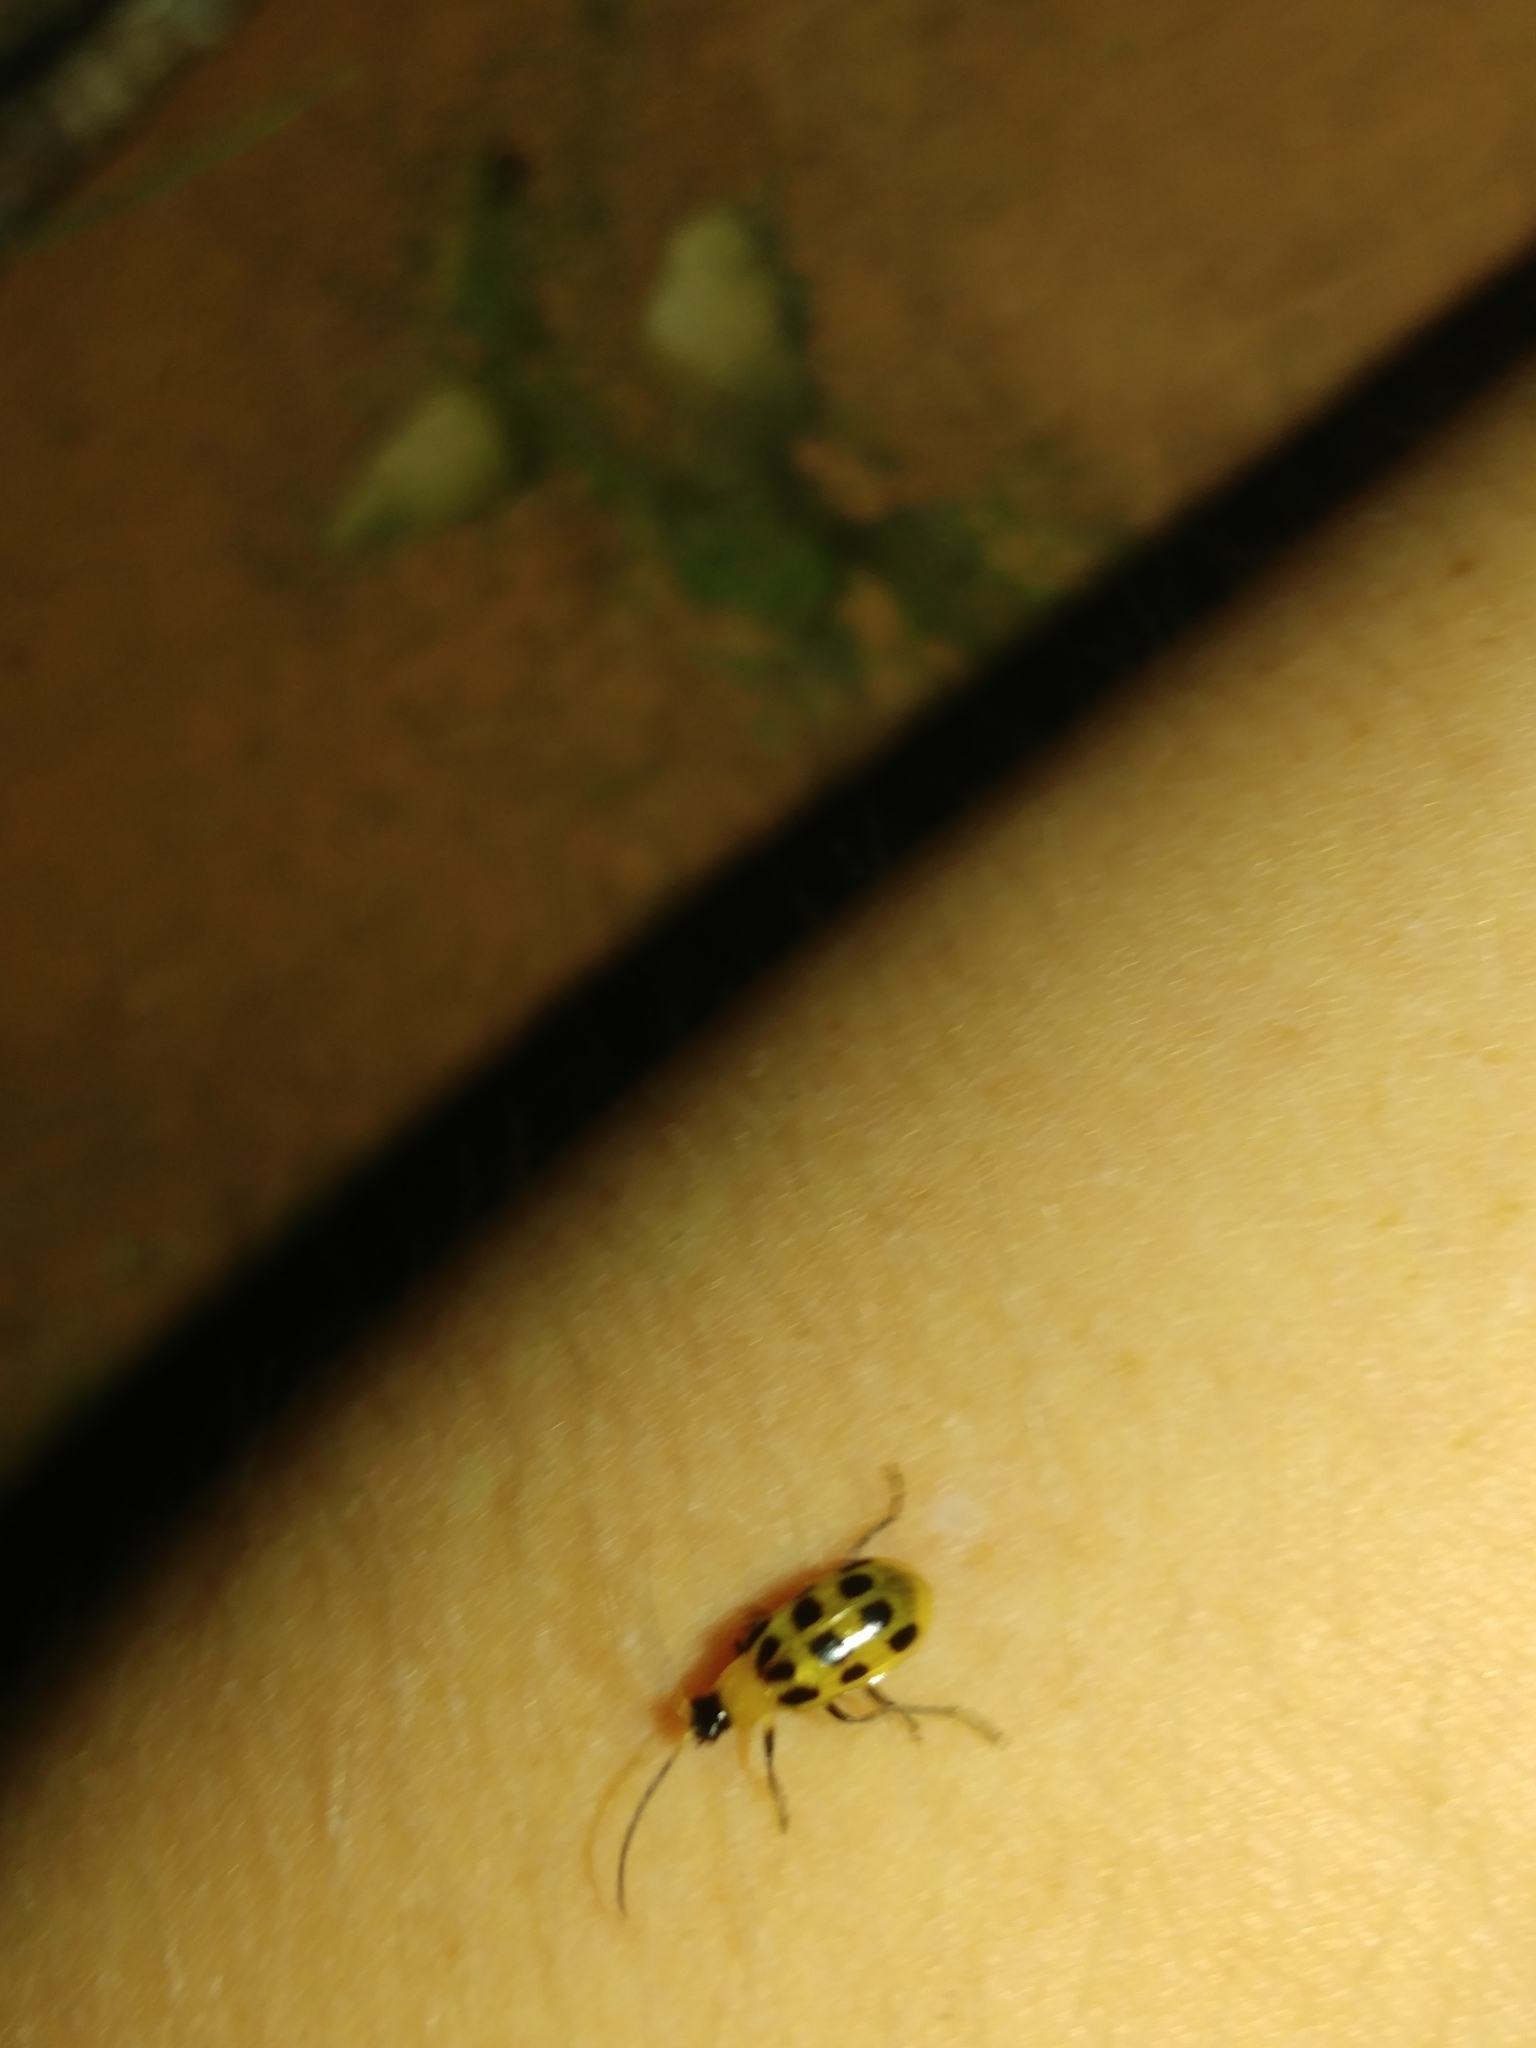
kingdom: Animalia
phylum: Arthropoda
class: Insecta
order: Coleoptera
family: Chrysomelidae
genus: Diabrotica
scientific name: Diabrotica undecimpunctata
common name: Spotted cucumber beetle
